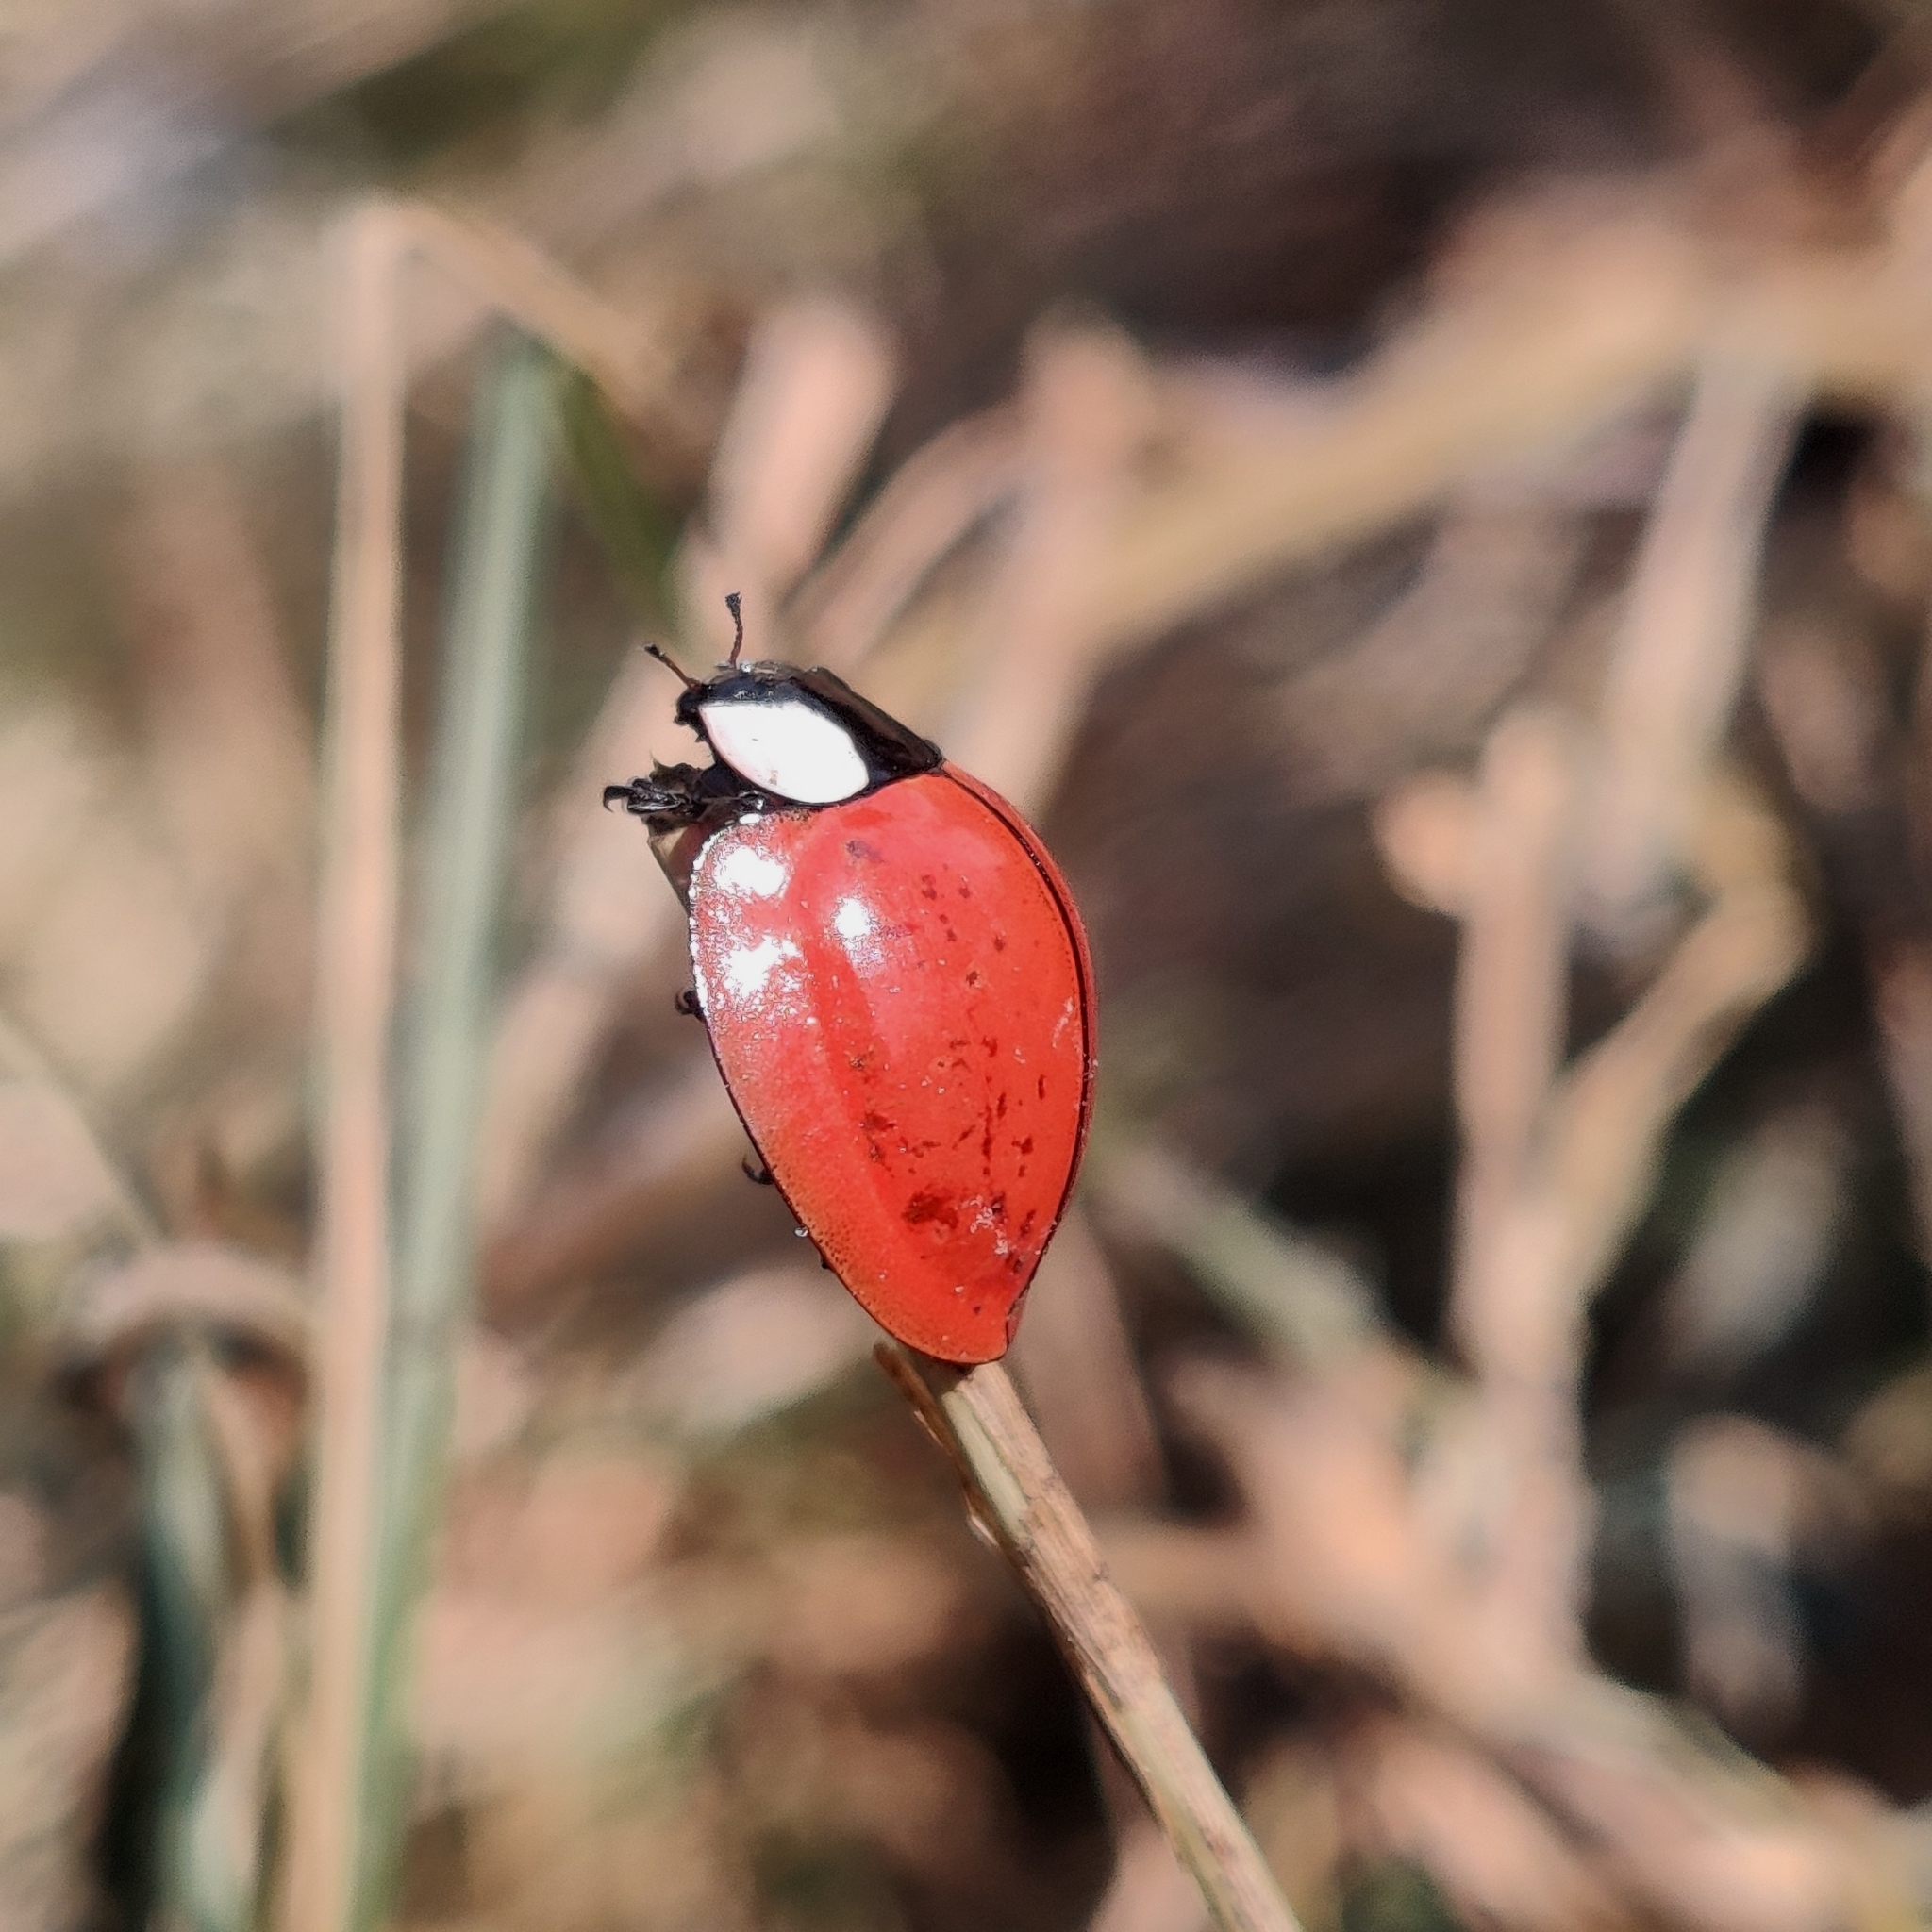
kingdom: Animalia
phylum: Arthropoda
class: Insecta
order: Coleoptera
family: Coccinellidae
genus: Palaeoneda
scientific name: Palaeoneda
